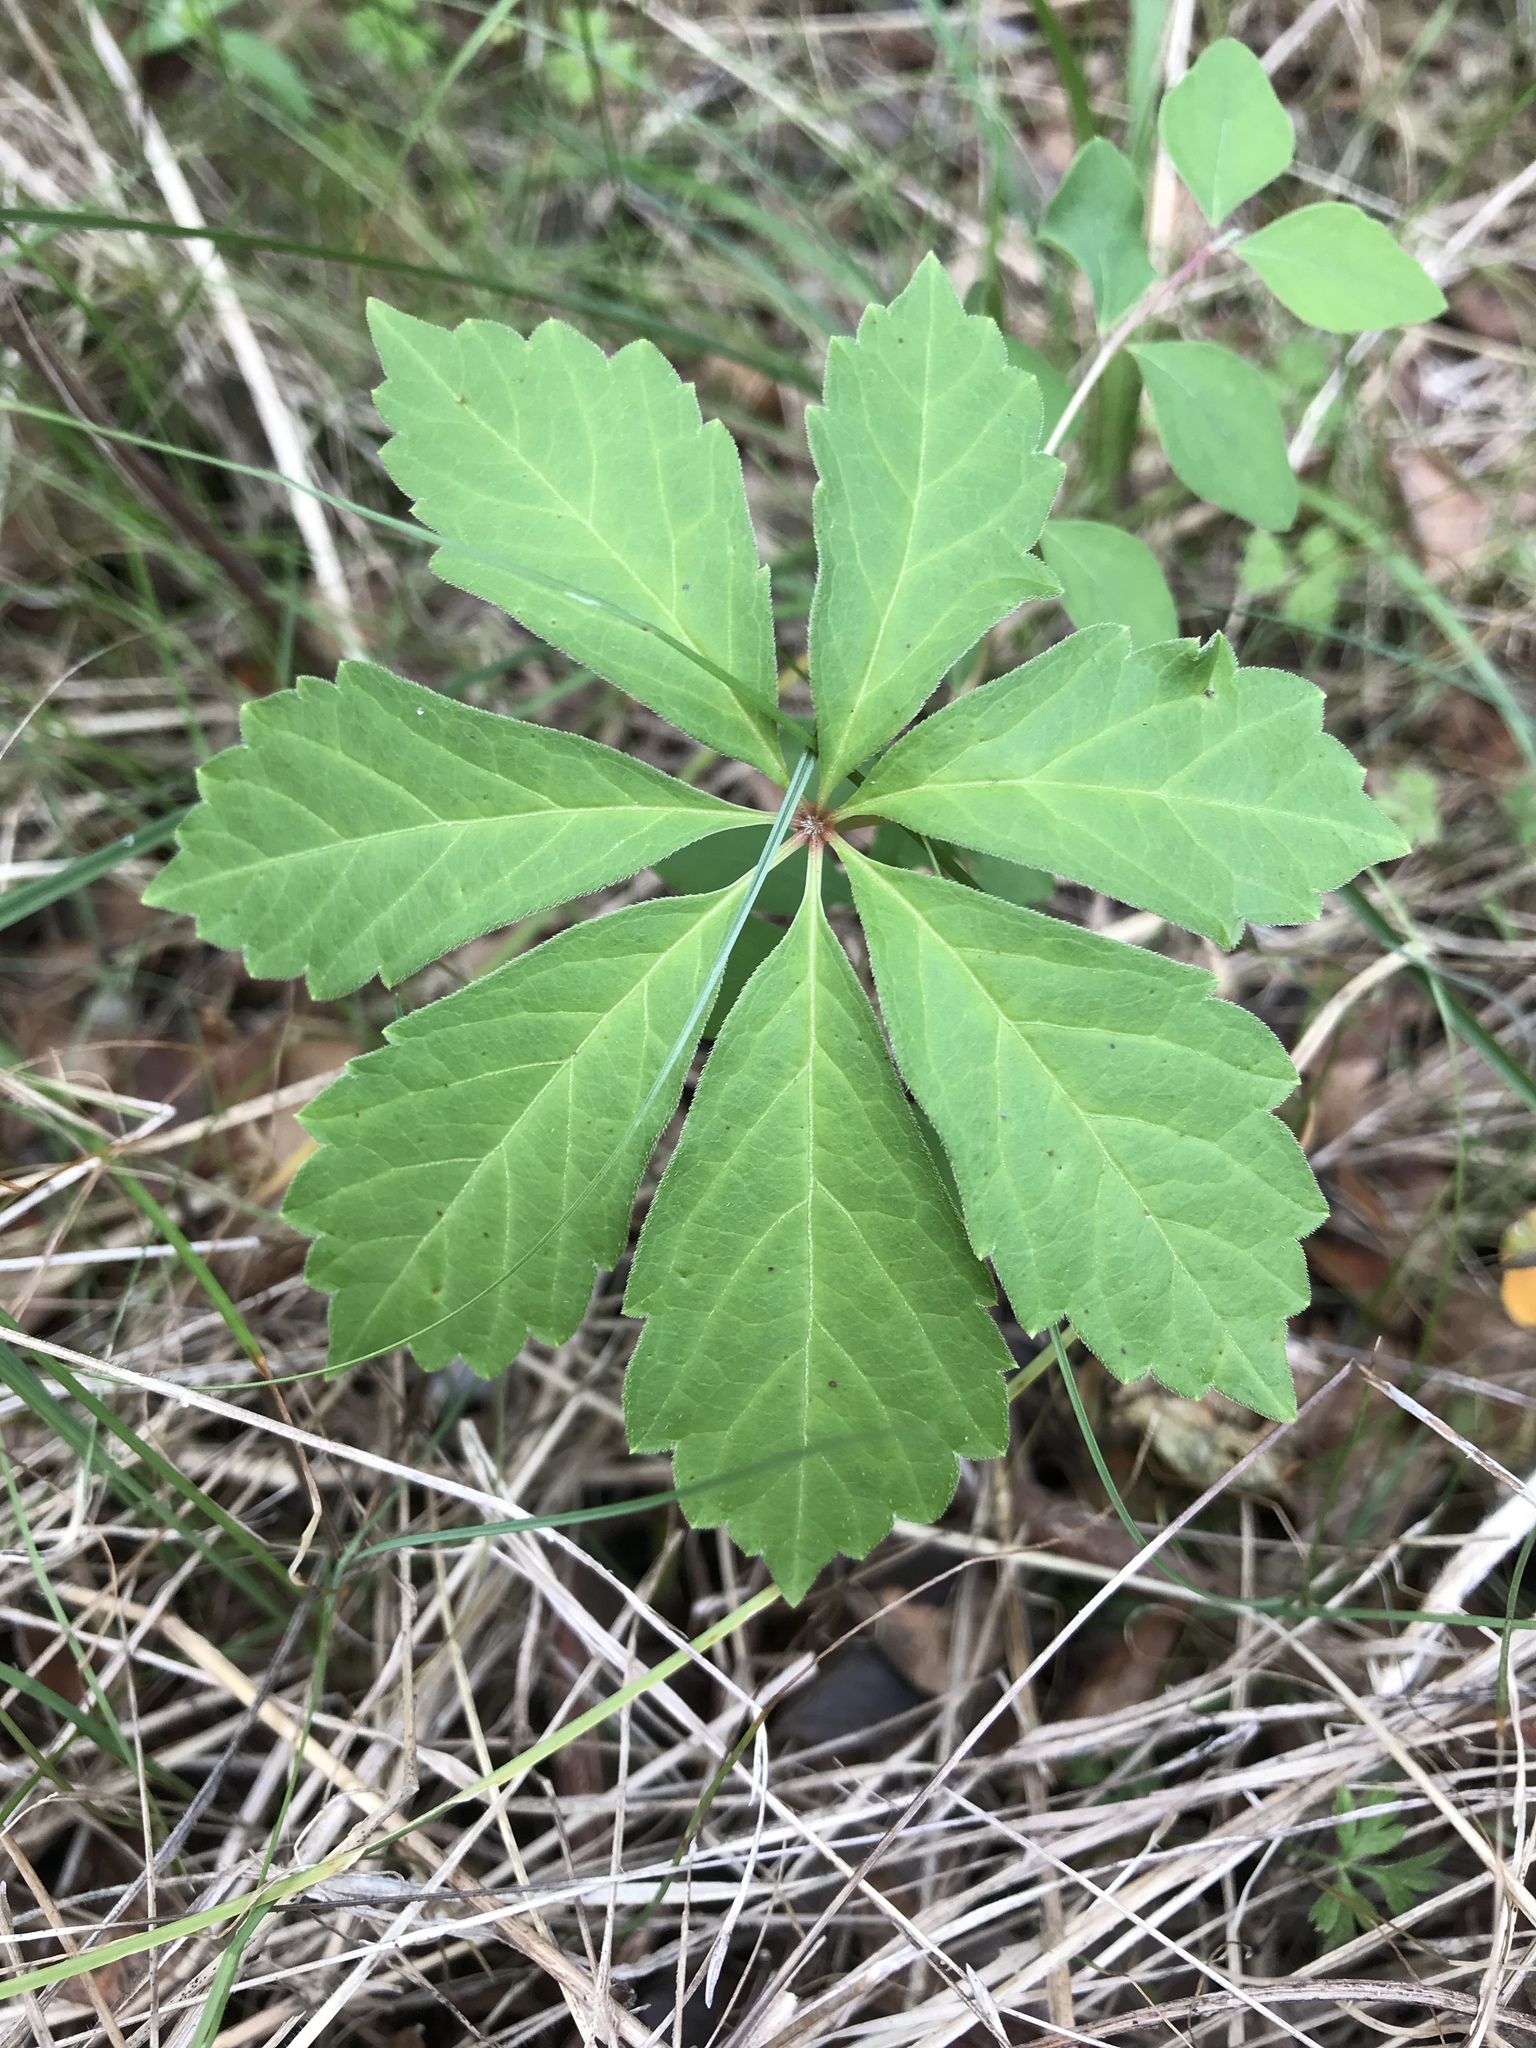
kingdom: Plantae
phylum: Tracheophyta
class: Magnoliopsida
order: Vitales
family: Vitaceae
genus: Parthenocissus
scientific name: Parthenocissus heptaphylla
